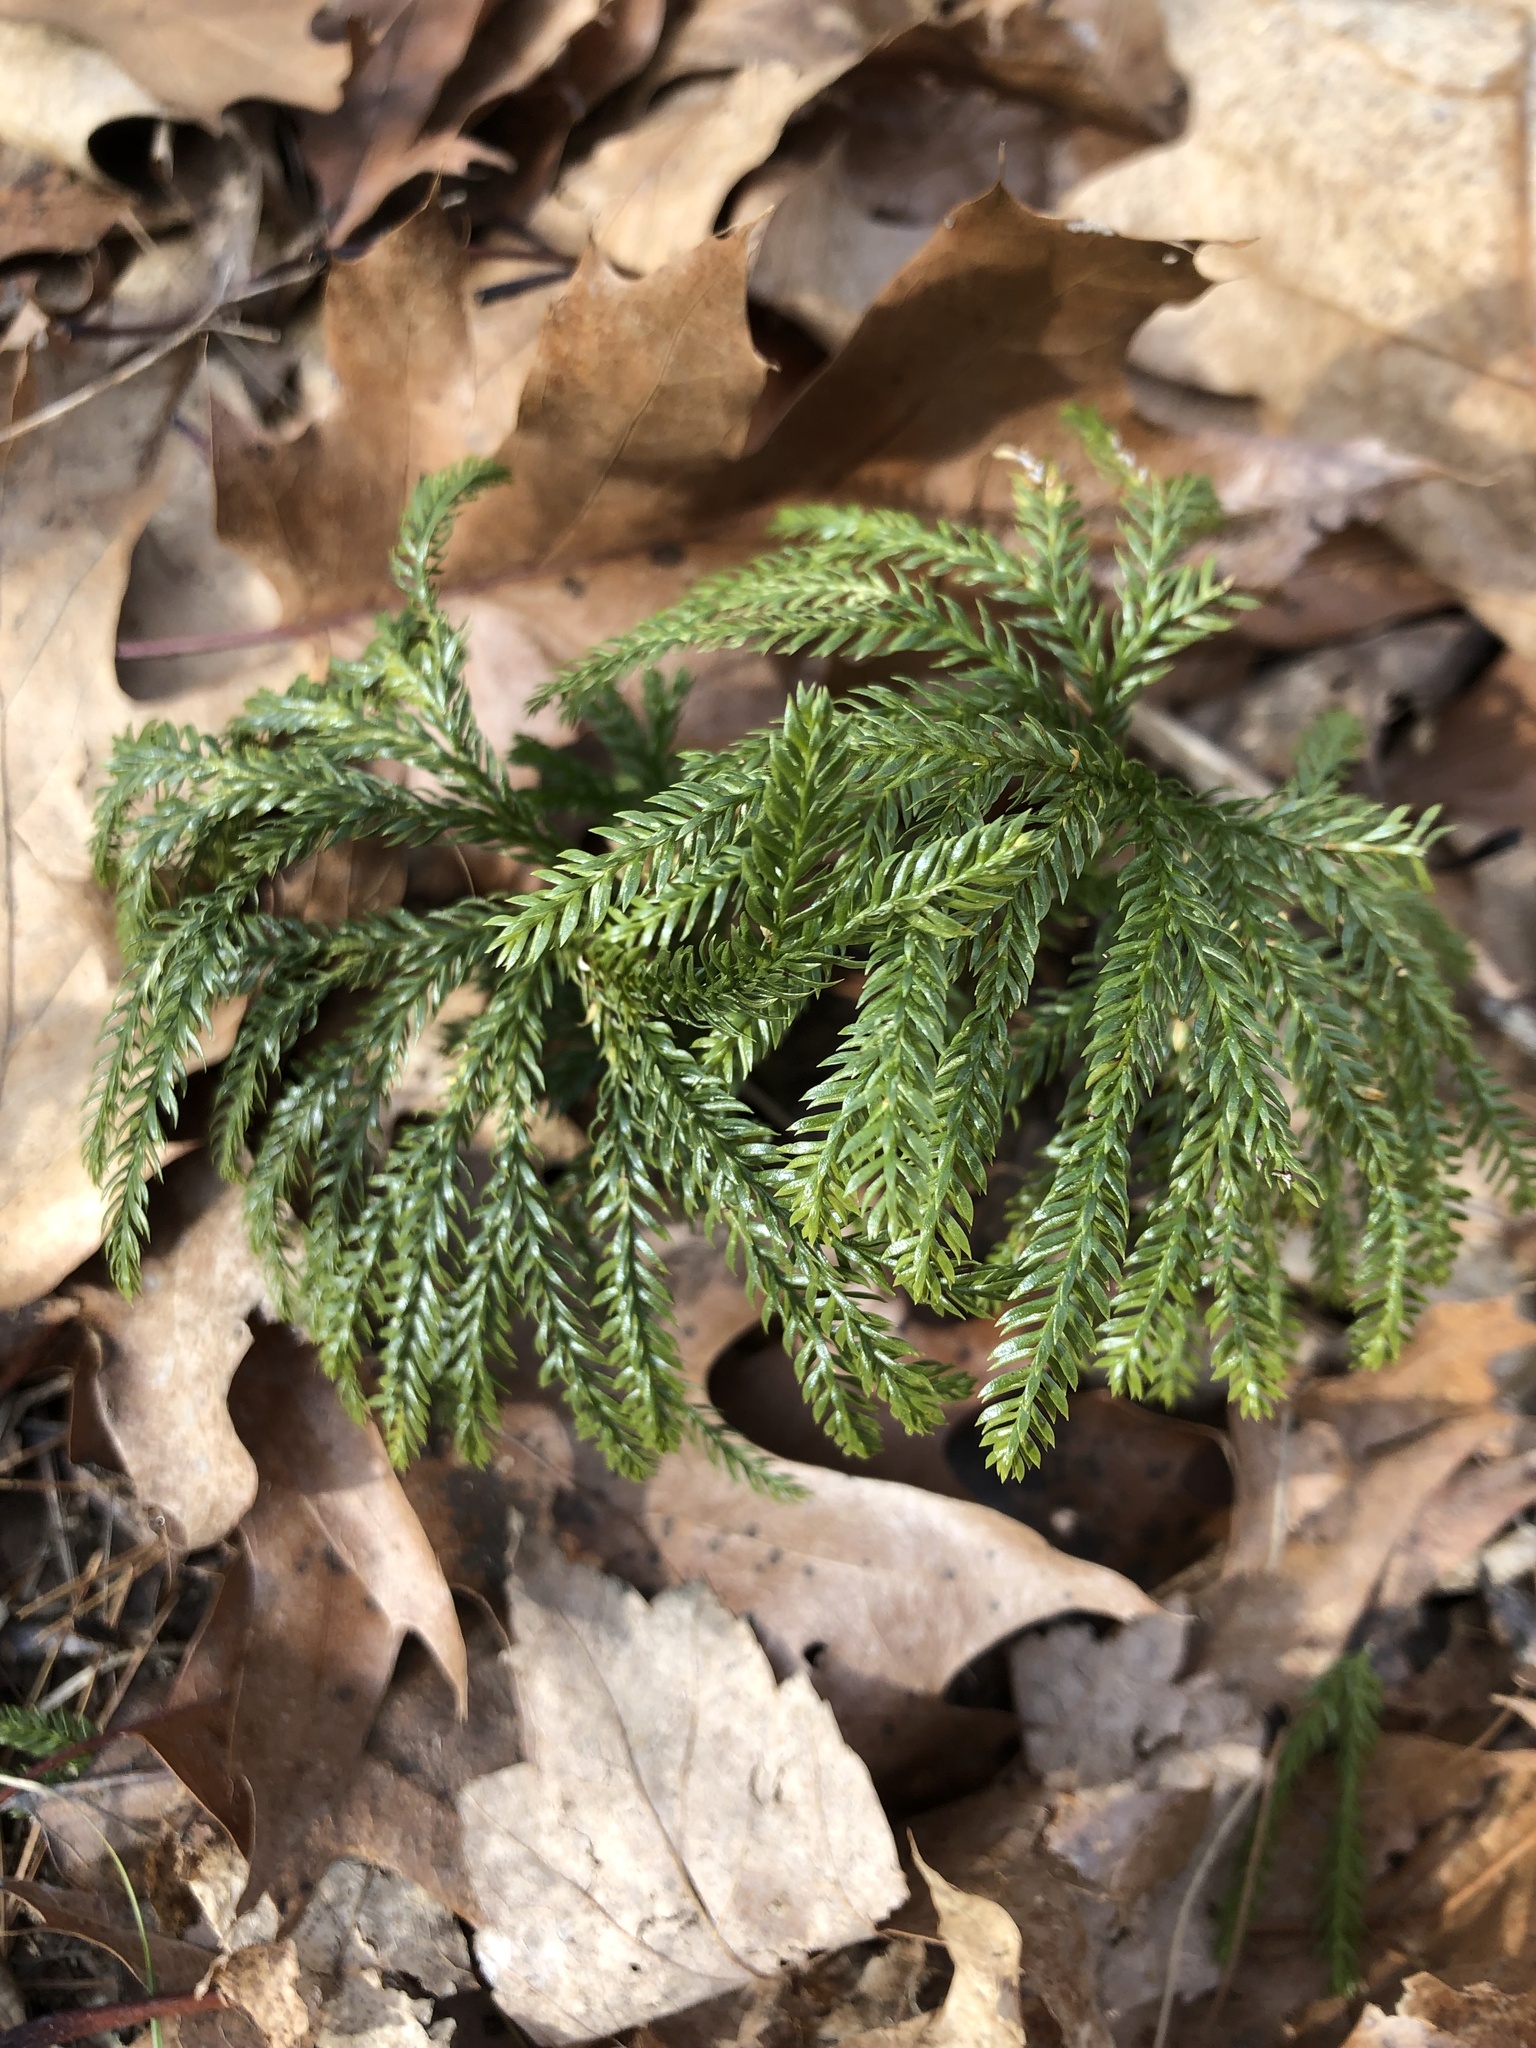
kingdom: Plantae
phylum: Tracheophyta
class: Lycopodiopsida
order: Lycopodiales
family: Lycopodiaceae
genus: Dendrolycopodium
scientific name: Dendrolycopodium obscurum
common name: Common ground-pine
